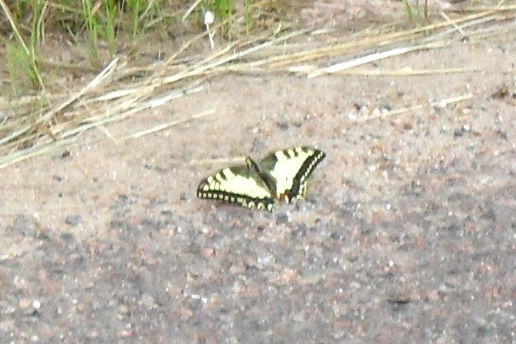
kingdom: Animalia
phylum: Arthropoda
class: Insecta
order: Lepidoptera
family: Papilionidae
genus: Papilio
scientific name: Papilio machaon
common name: Swallowtail
